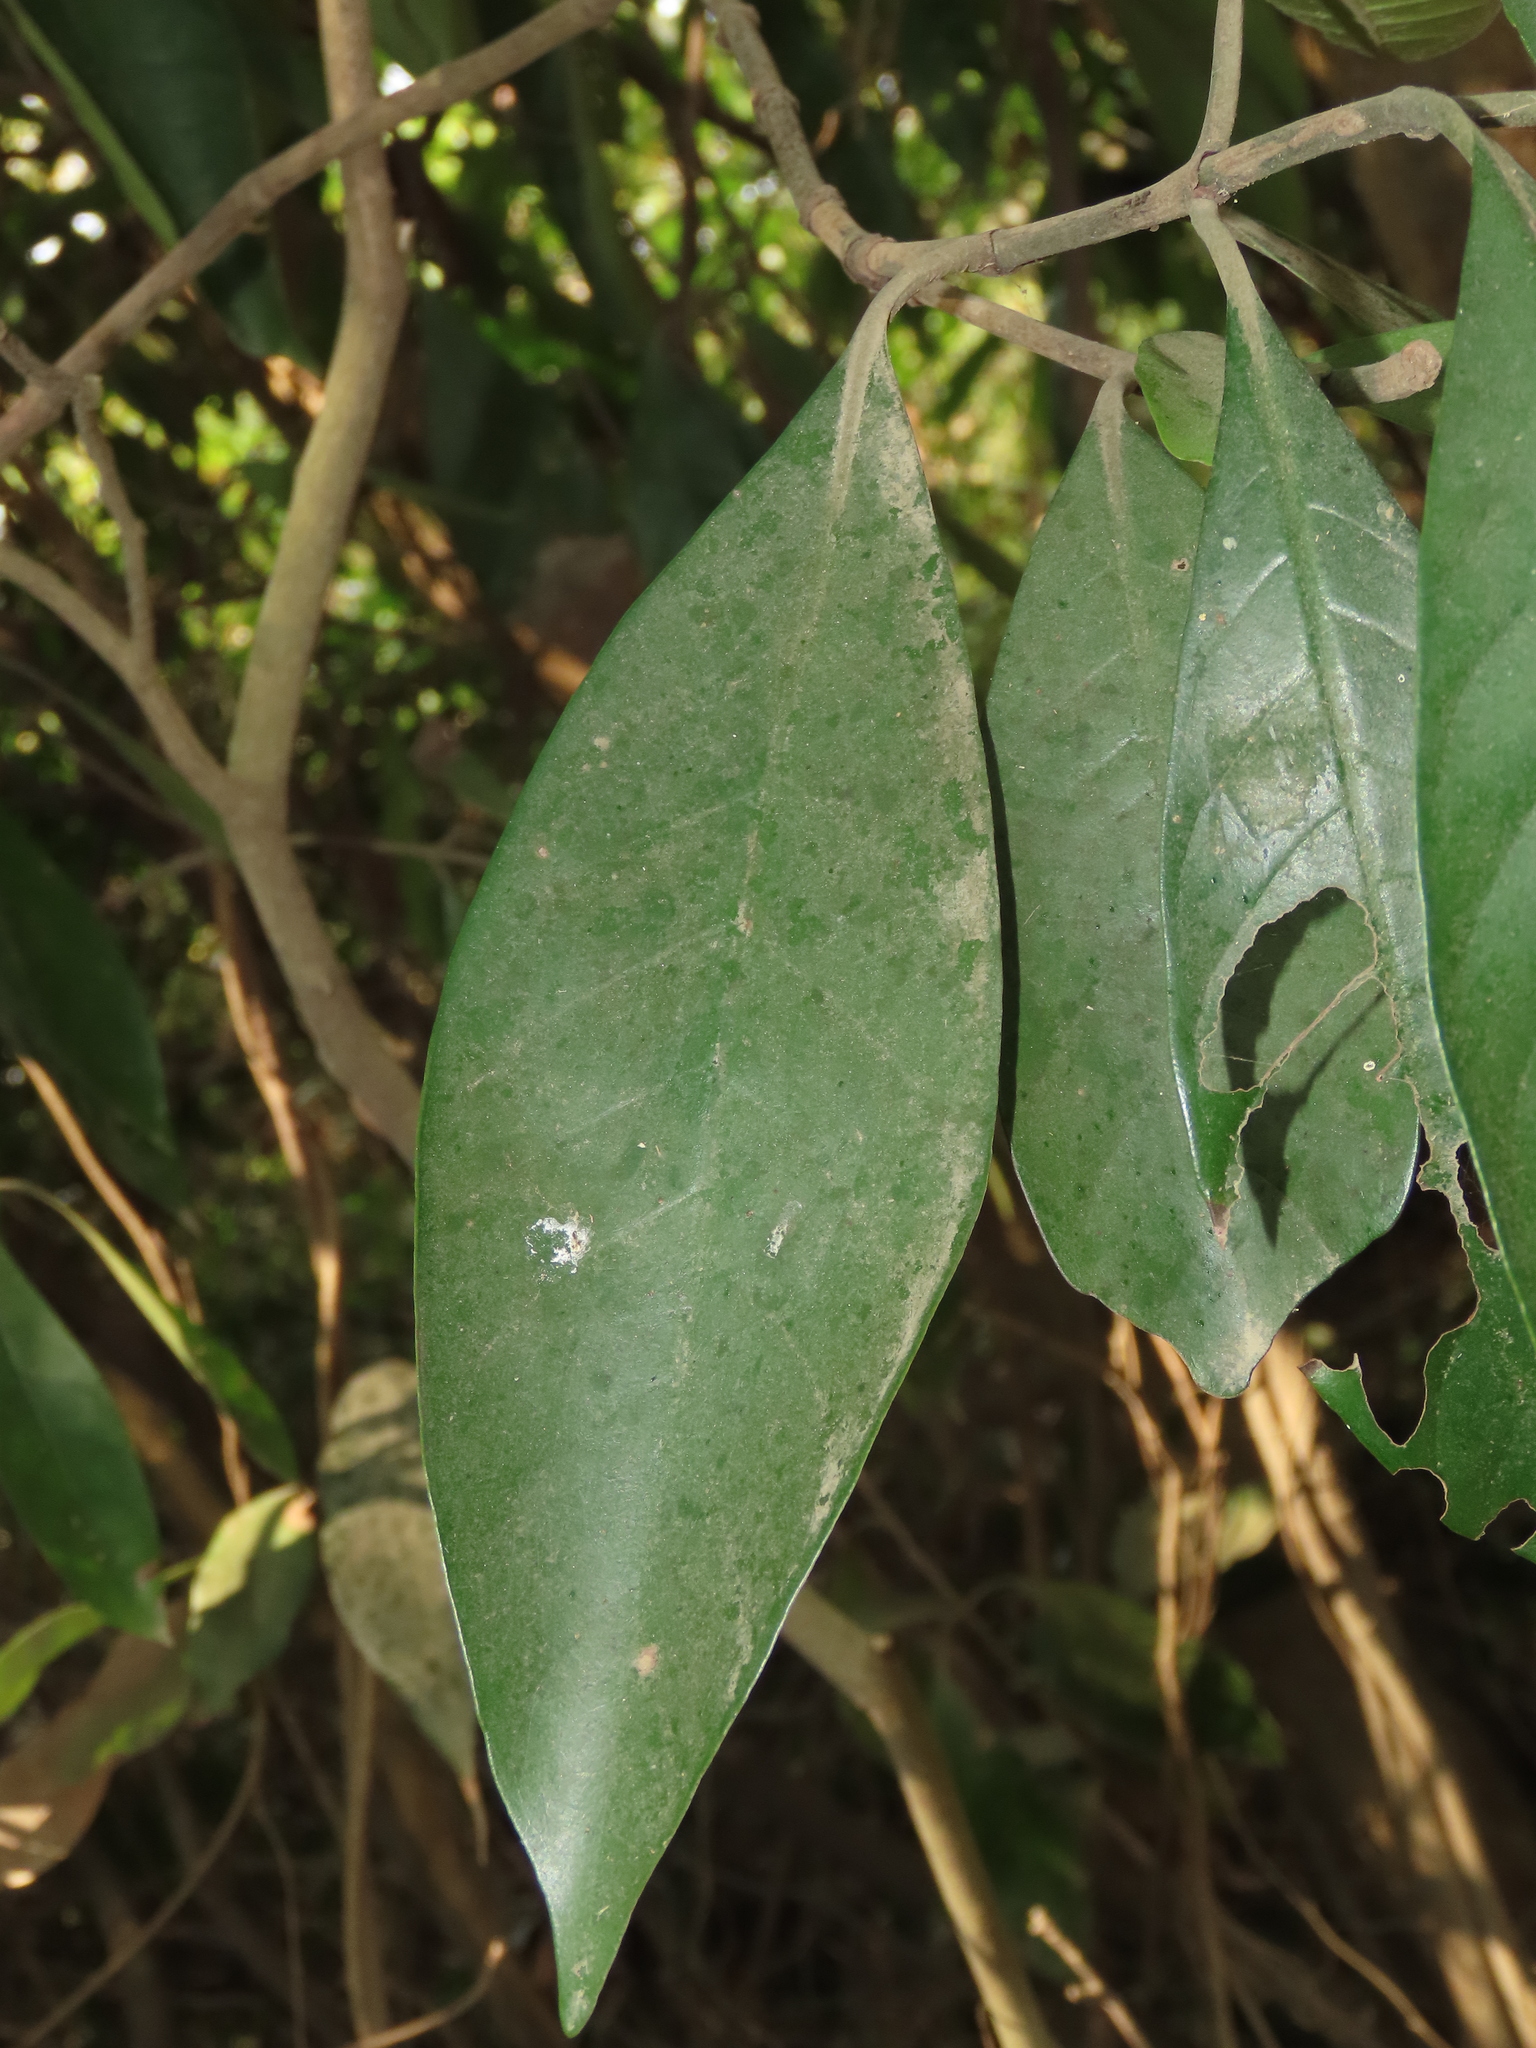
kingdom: Plantae
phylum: Tracheophyta
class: Magnoliopsida
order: Gentianales
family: Rubiaceae
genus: Psychotria
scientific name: Psychotria asiatica
